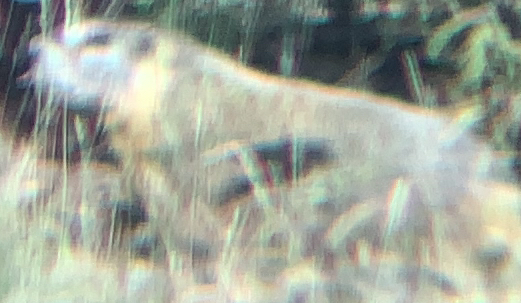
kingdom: Animalia
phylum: Chordata
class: Mammalia
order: Rodentia
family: Sciuridae
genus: Marmota
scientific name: Marmota flaviventris
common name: Yellow-bellied marmot
